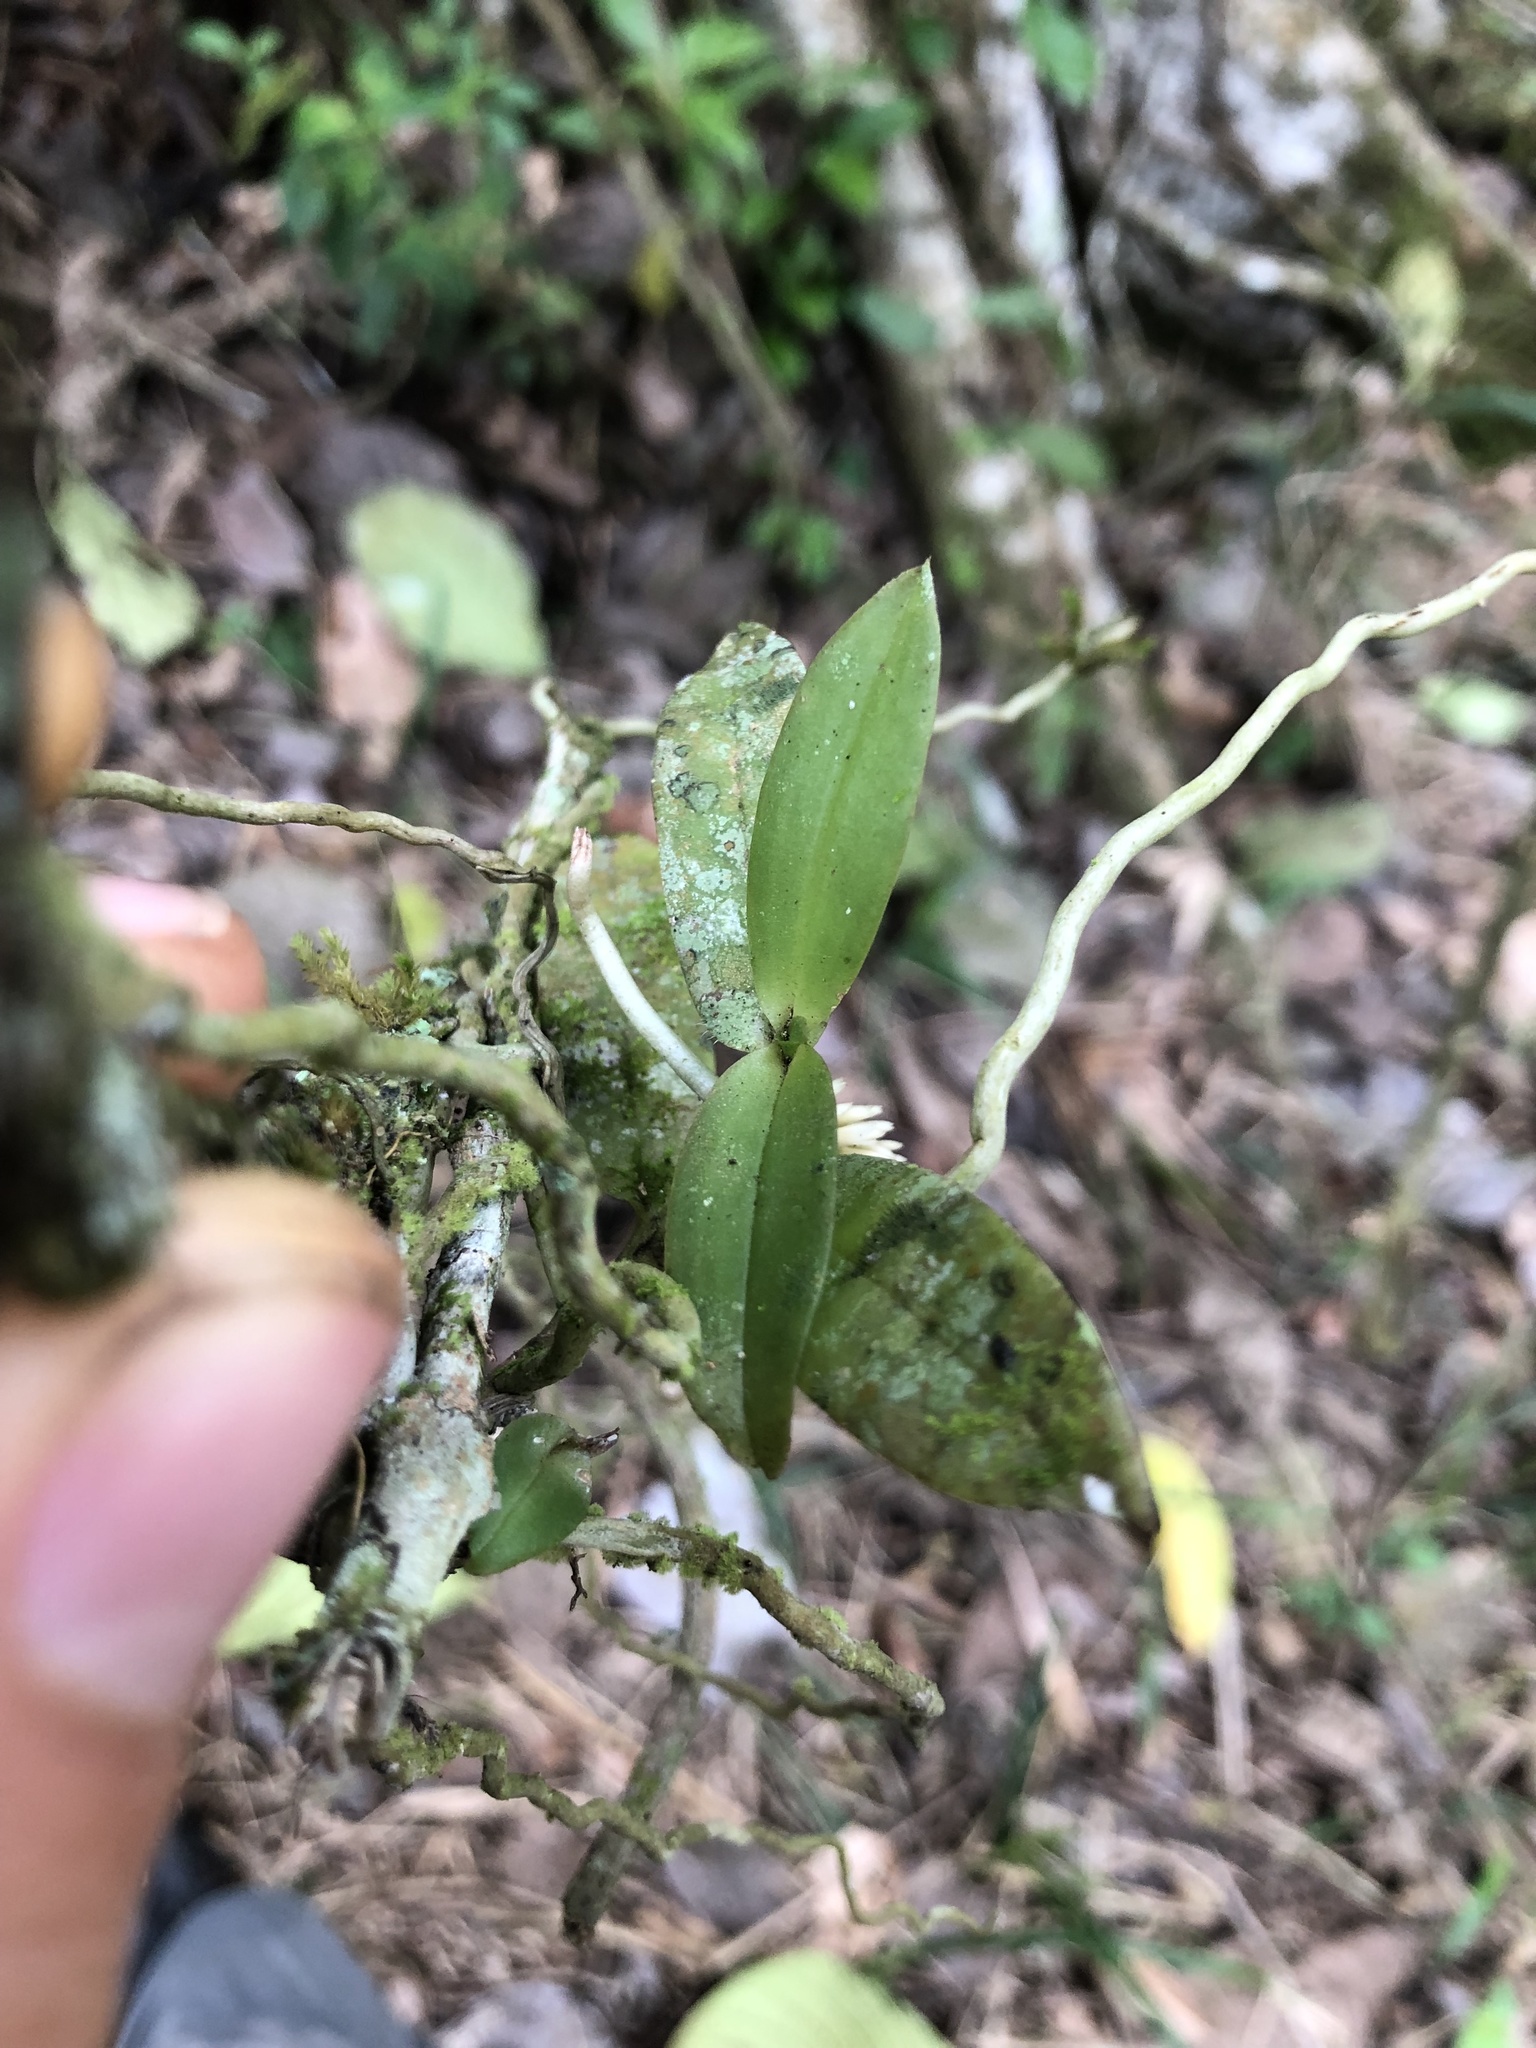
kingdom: Plantae
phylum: Tracheophyta
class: Liliopsida
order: Asparagales
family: Orchidaceae
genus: Campylocentrum
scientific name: Campylocentrum robustum
